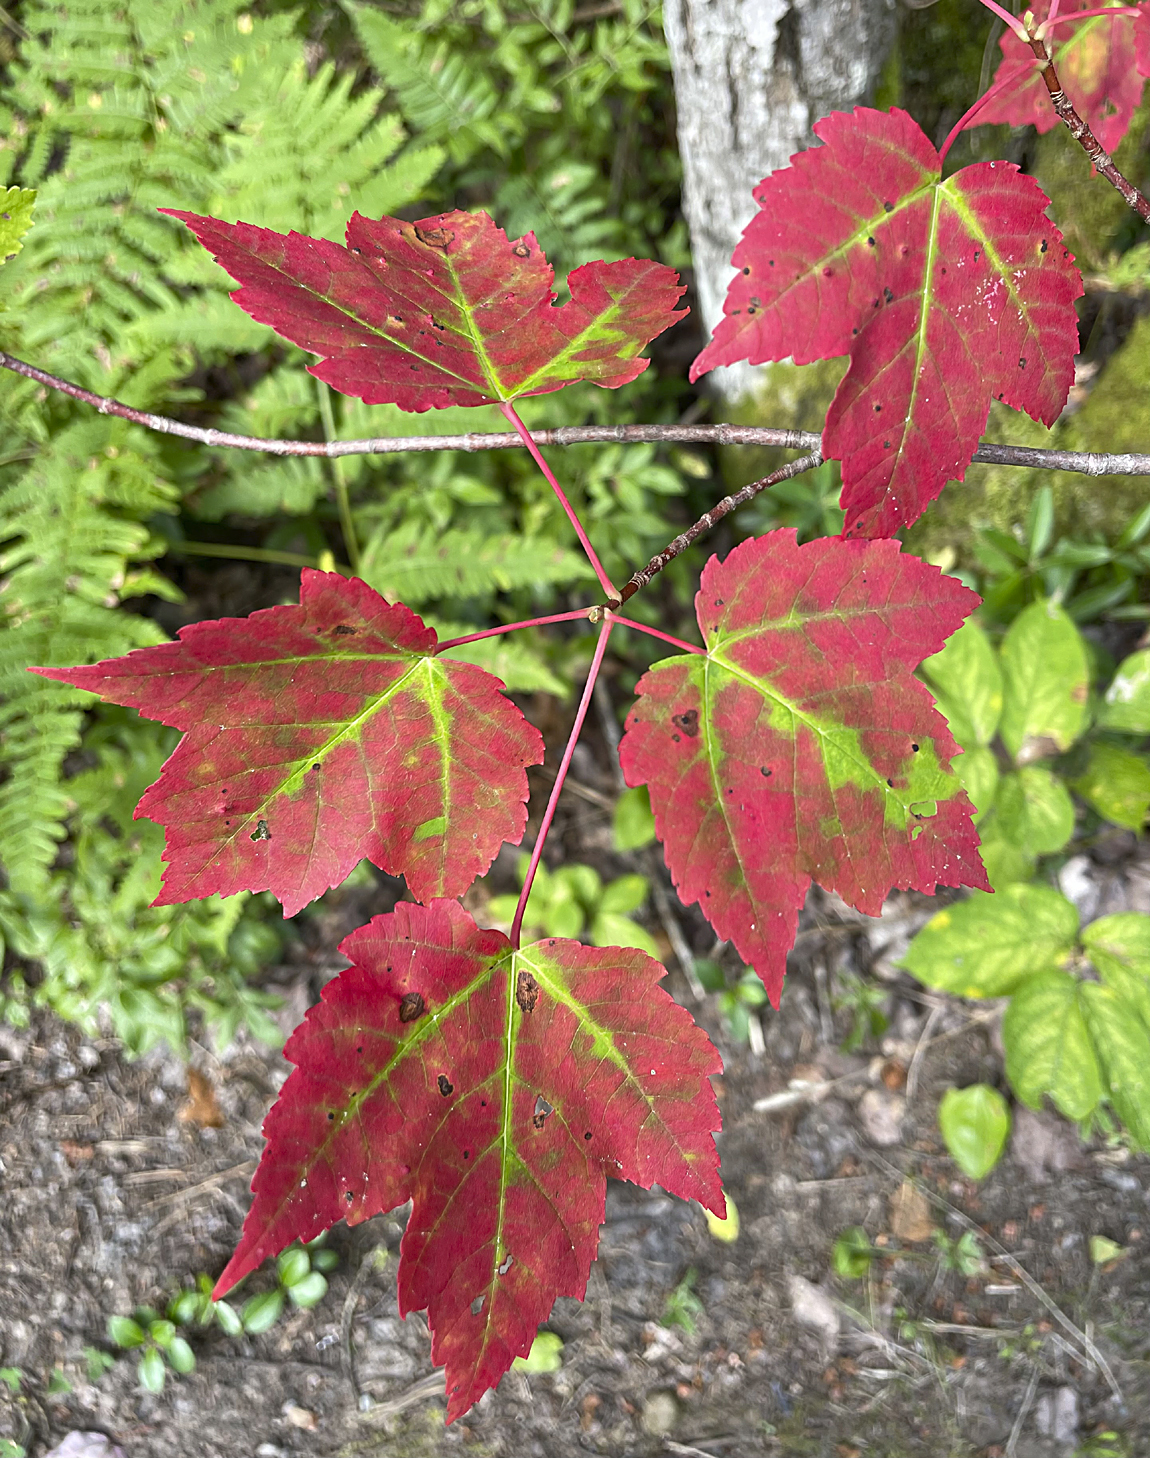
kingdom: Plantae
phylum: Tracheophyta
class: Magnoliopsida
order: Sapindales
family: Sapindaceae
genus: Acer
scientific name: Acer rubrum
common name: Red maple
